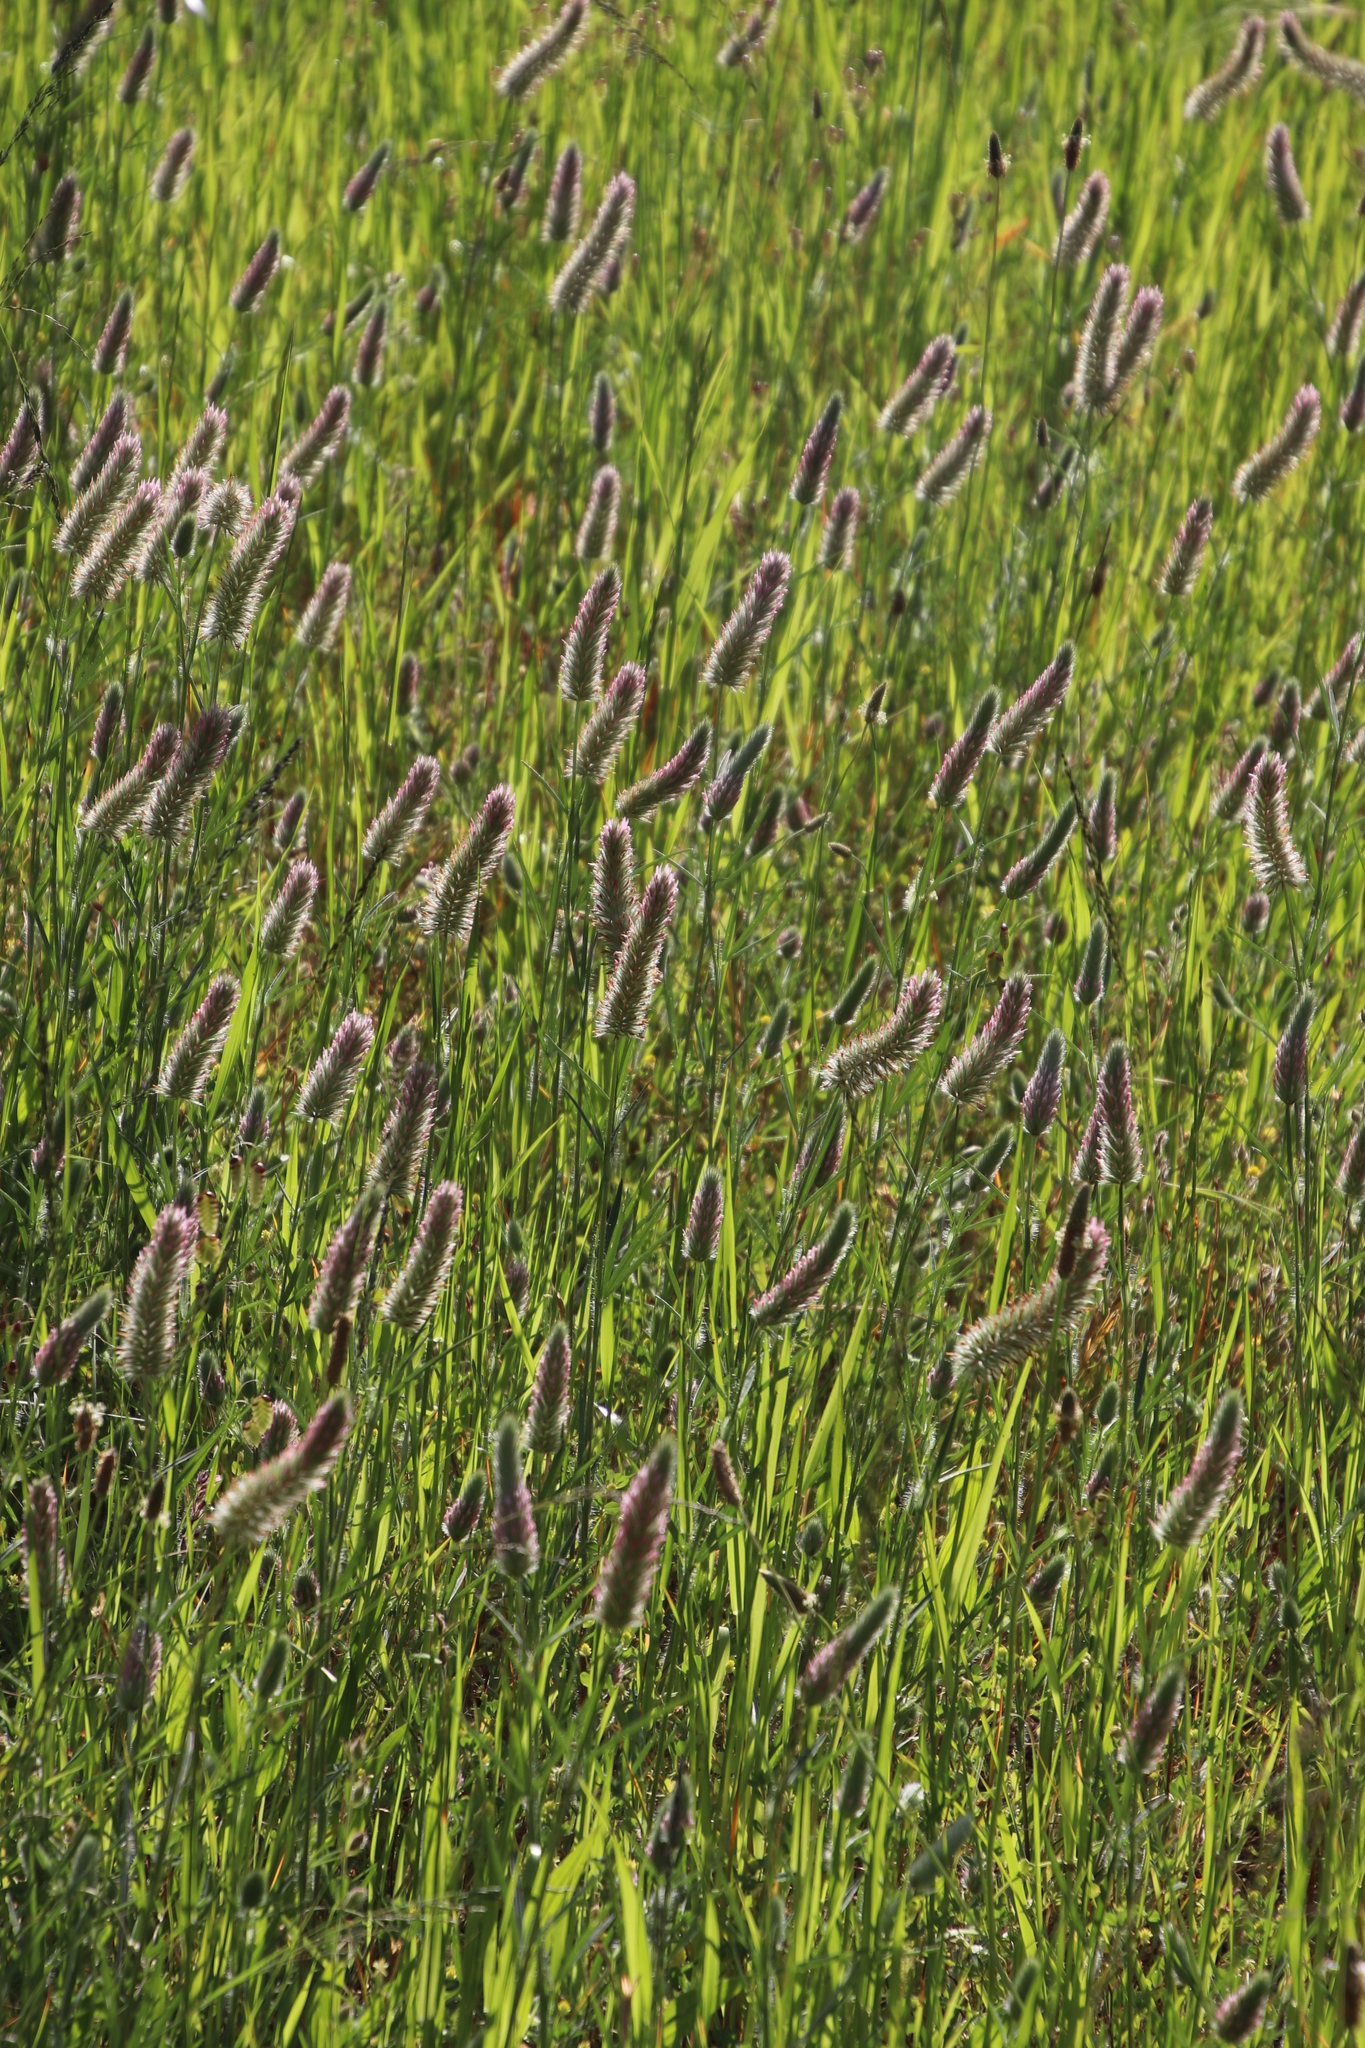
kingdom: Plantae
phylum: Tracheophyta
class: Magnoliopsida
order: Fabales
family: Fabaceae
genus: Trifolium
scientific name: Trifolium angustifolium
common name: Narrow clover
